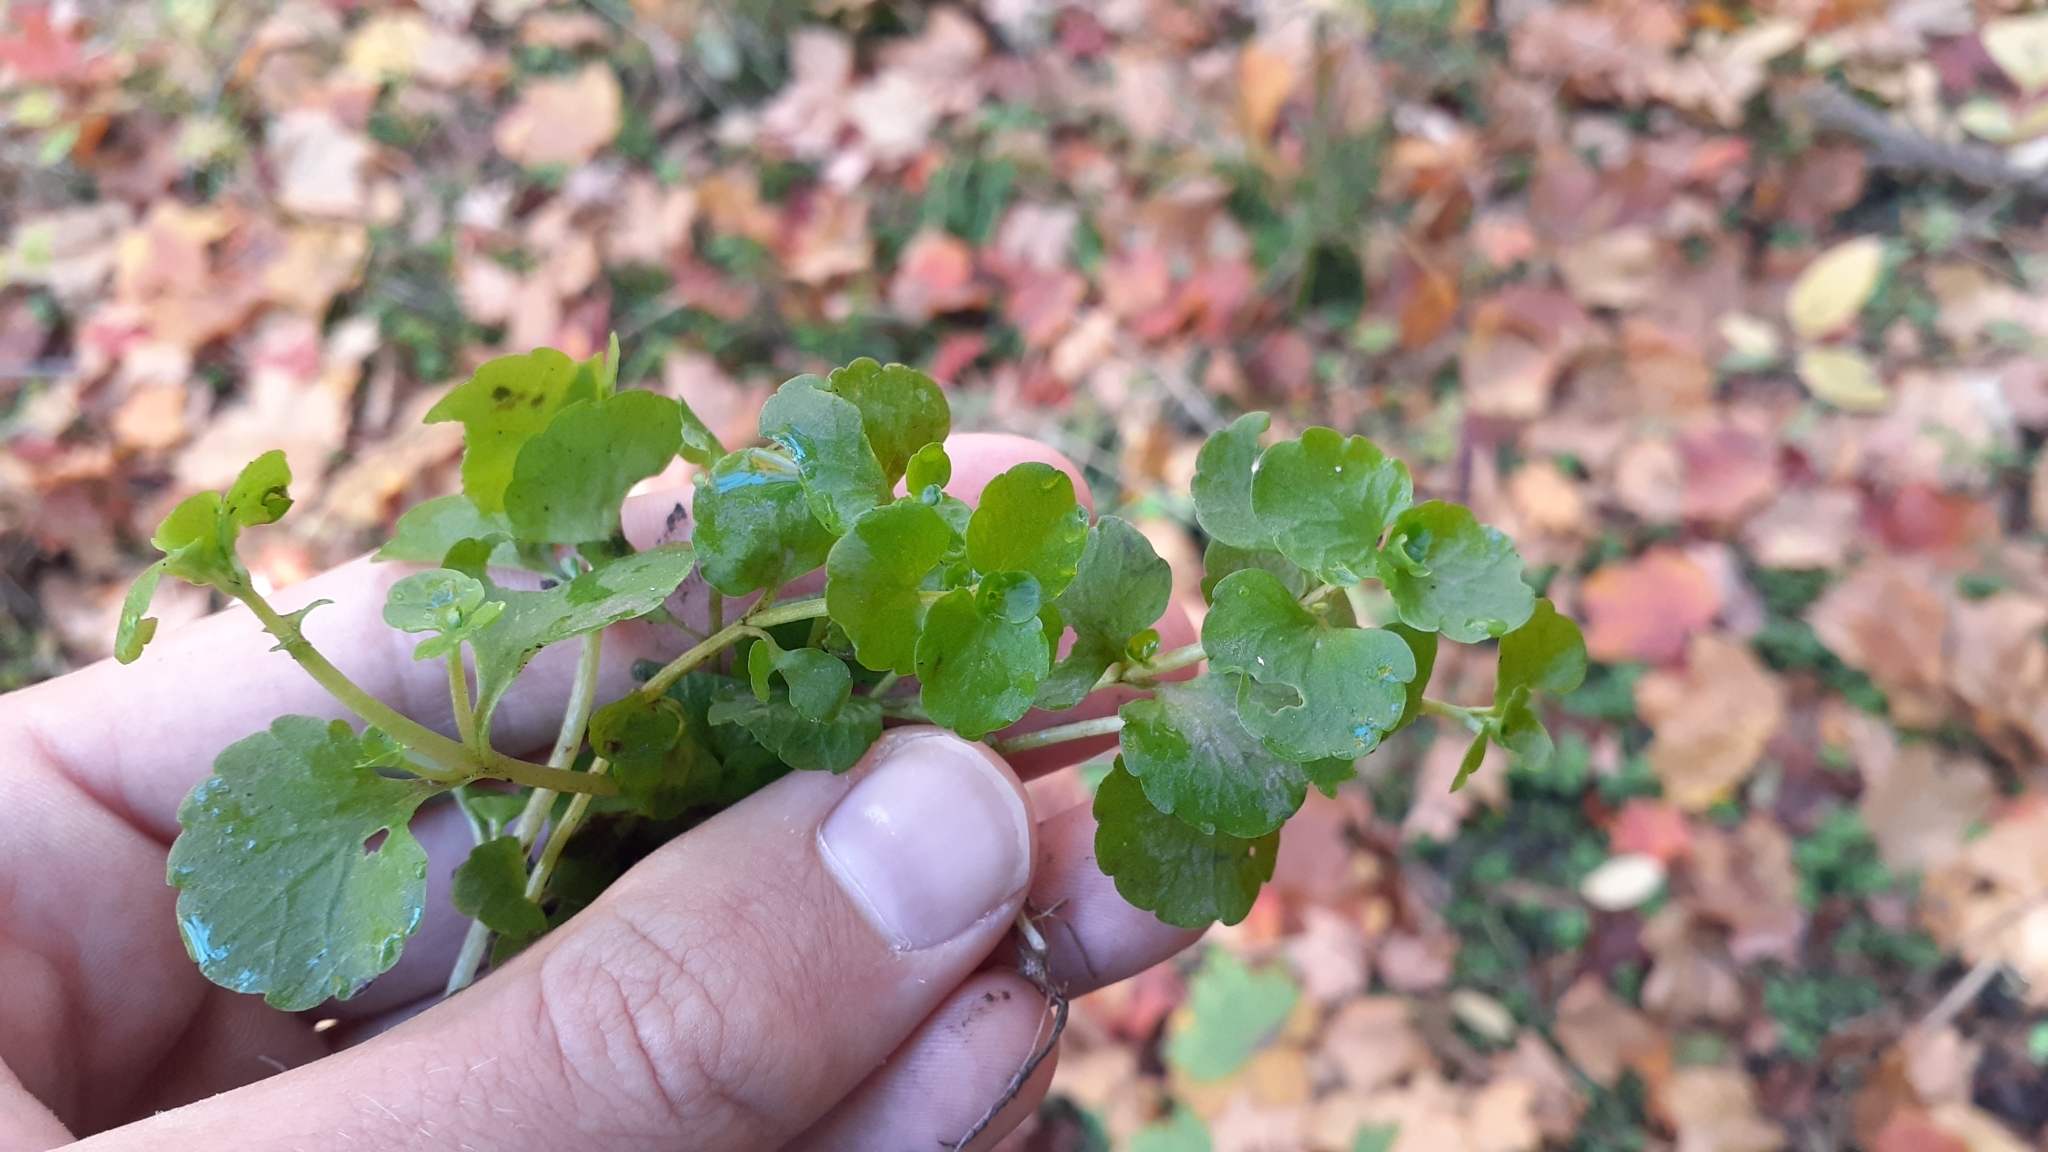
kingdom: Plantae
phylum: Tracheophyta
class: Magnoliopsida
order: Saxifragales
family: Saxifragaceae
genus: Chrysosplenium
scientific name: Chrysosplenium americanum
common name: American golden-saxifrage
